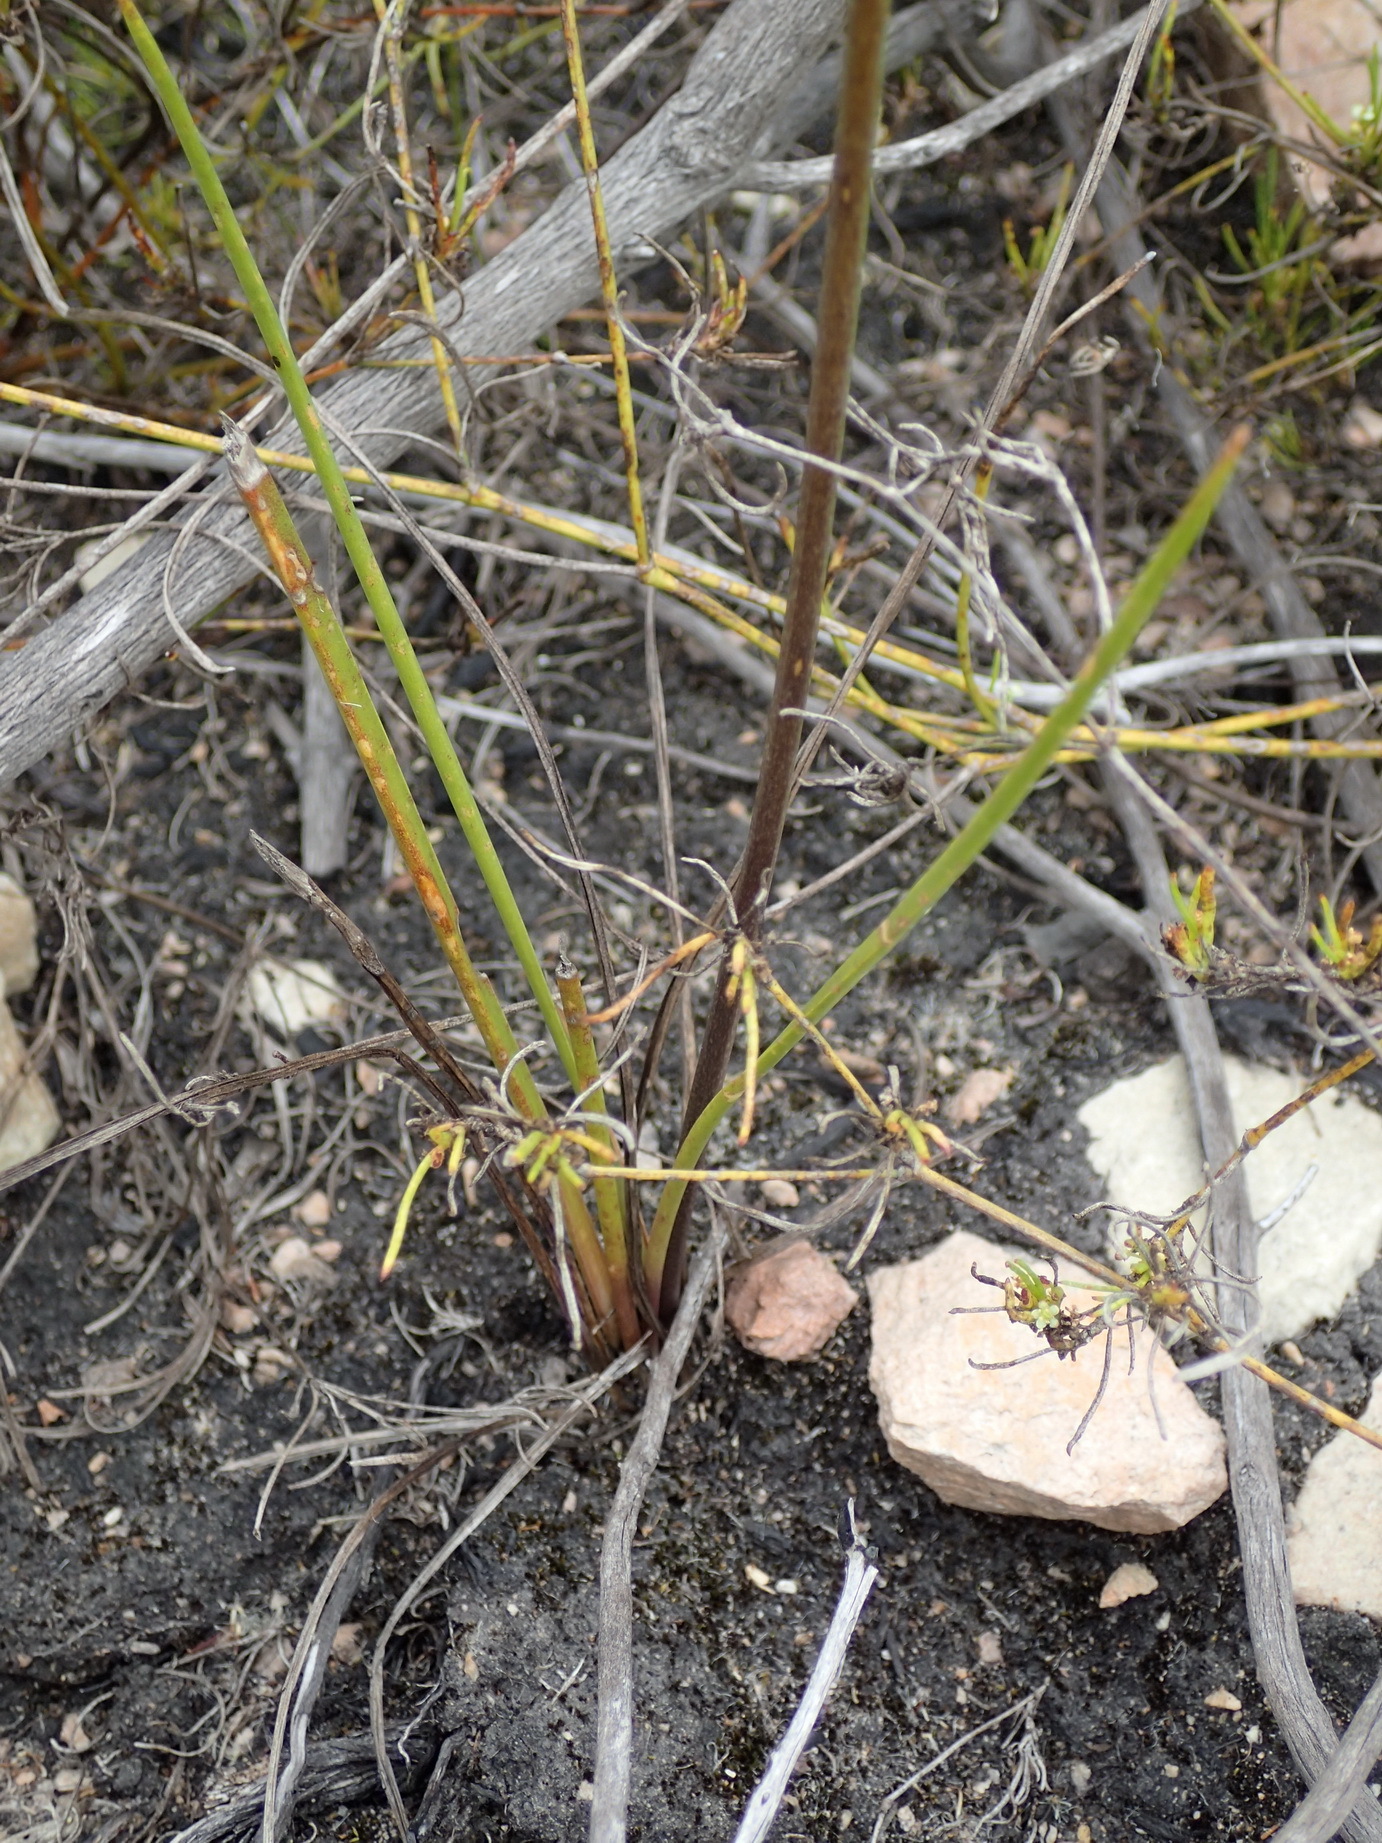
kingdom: Plantae
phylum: Tracheophyta
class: Liliopsida
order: Asparagales
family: Asparagaceae
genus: Drimia
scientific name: Drimia media
